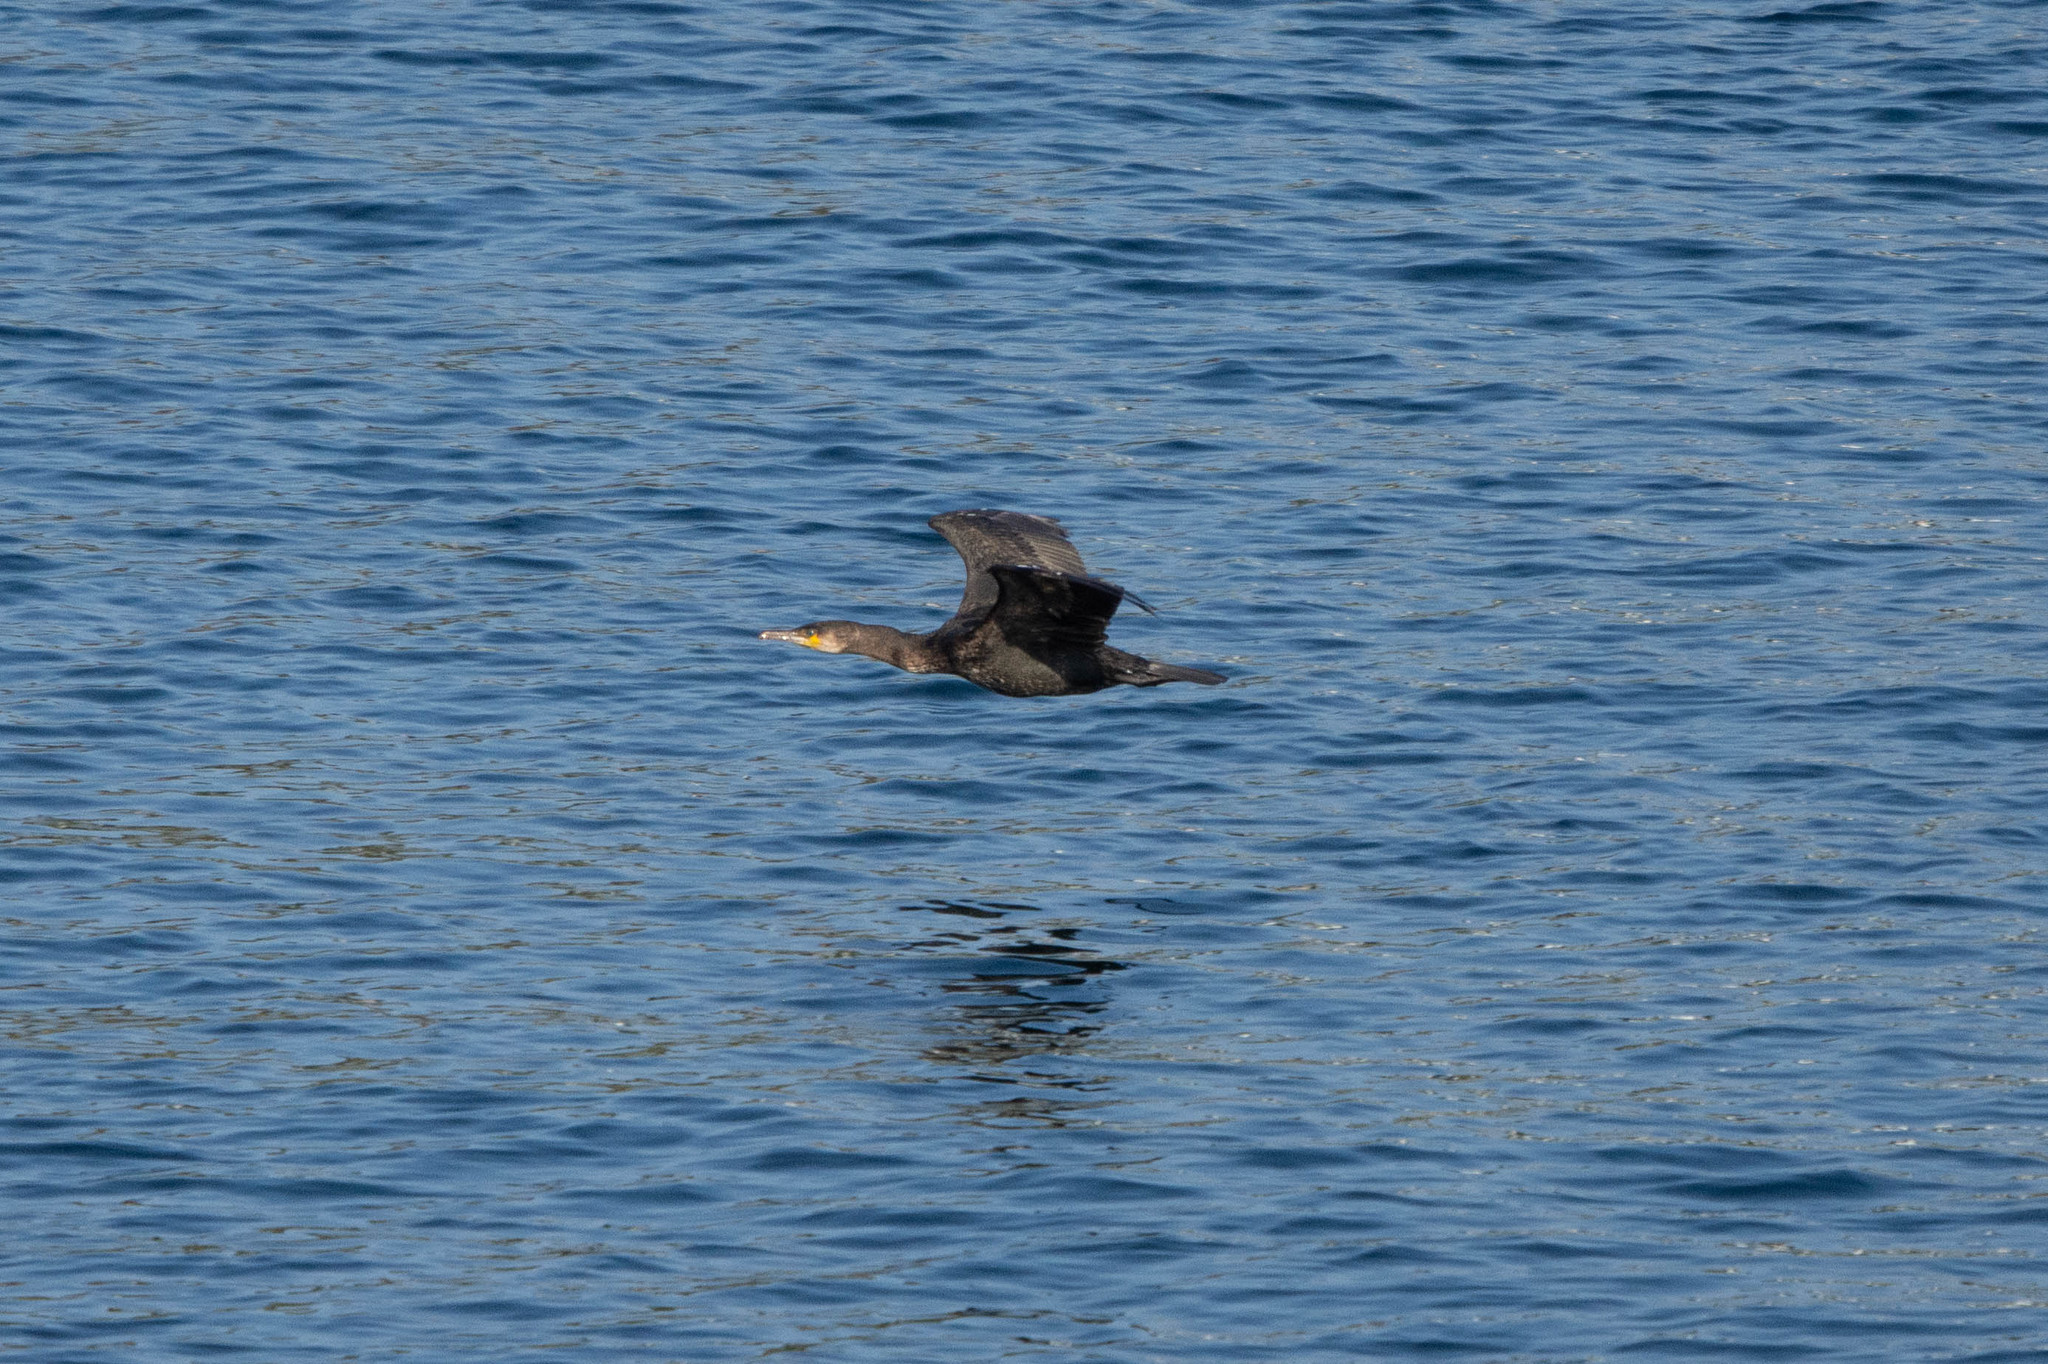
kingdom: Animalia
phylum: Chordata
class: Aves
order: Suliformes
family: Phalacrocoracidae
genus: Phalacrocorax
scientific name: Phalacrocorax carbo
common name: Great cormorant
